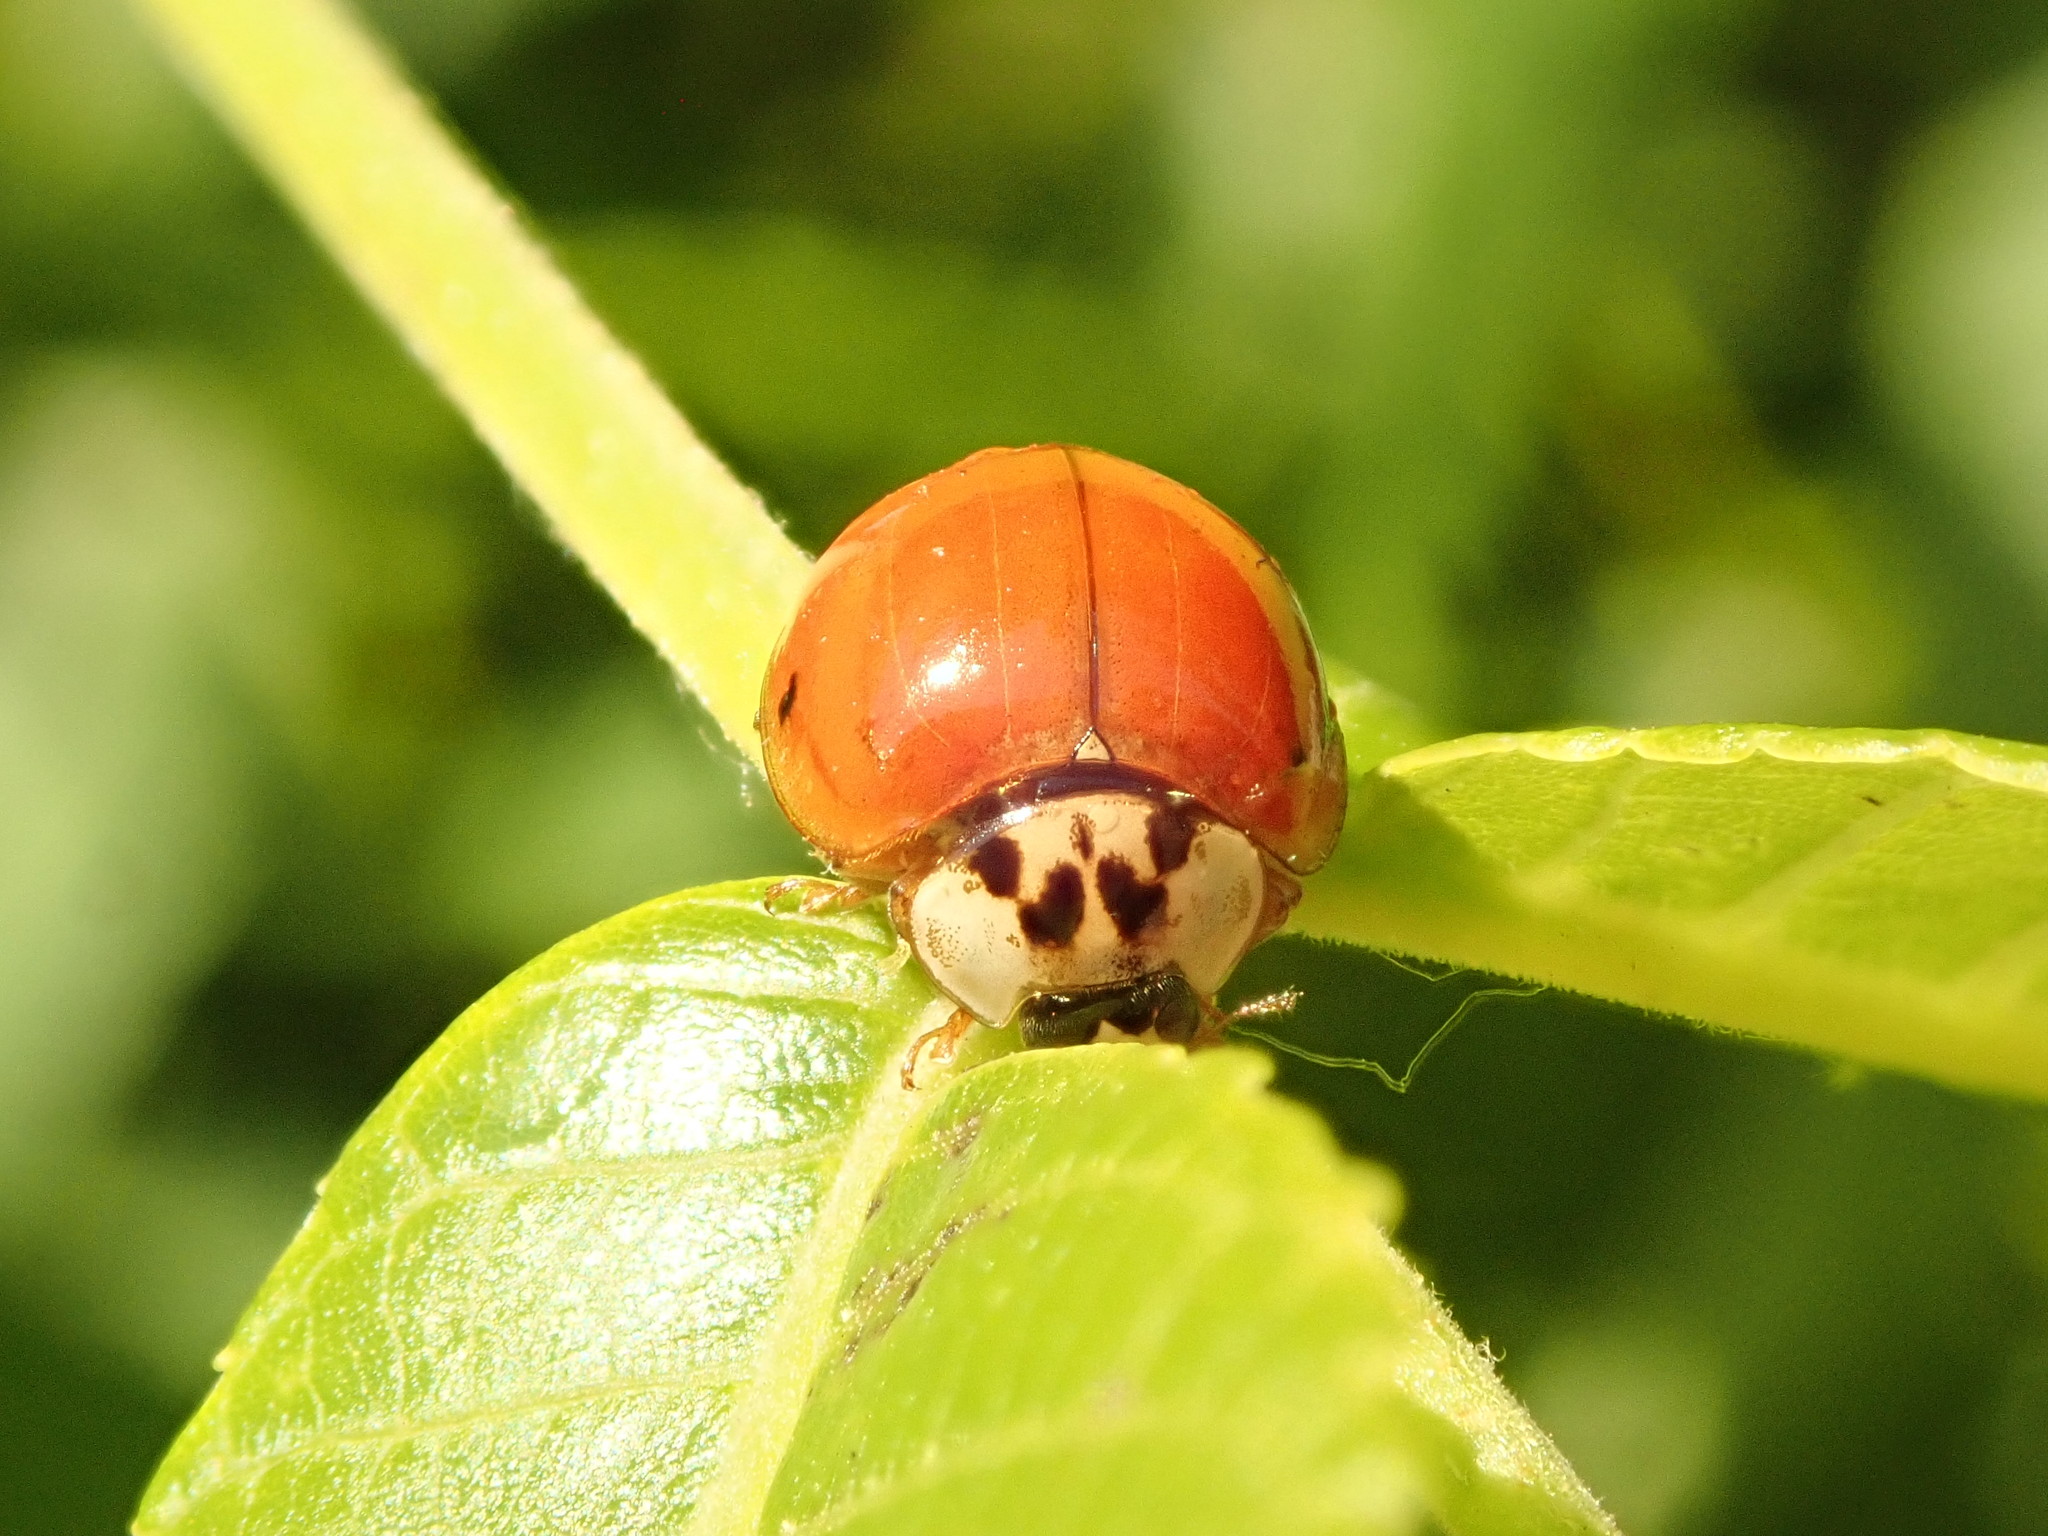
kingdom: Animalia
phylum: Arthropoda
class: Insecta
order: Coleoptera
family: Coccinellidae
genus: Harmonia
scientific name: Harmonia axyridis
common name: Harlequin ladybird
